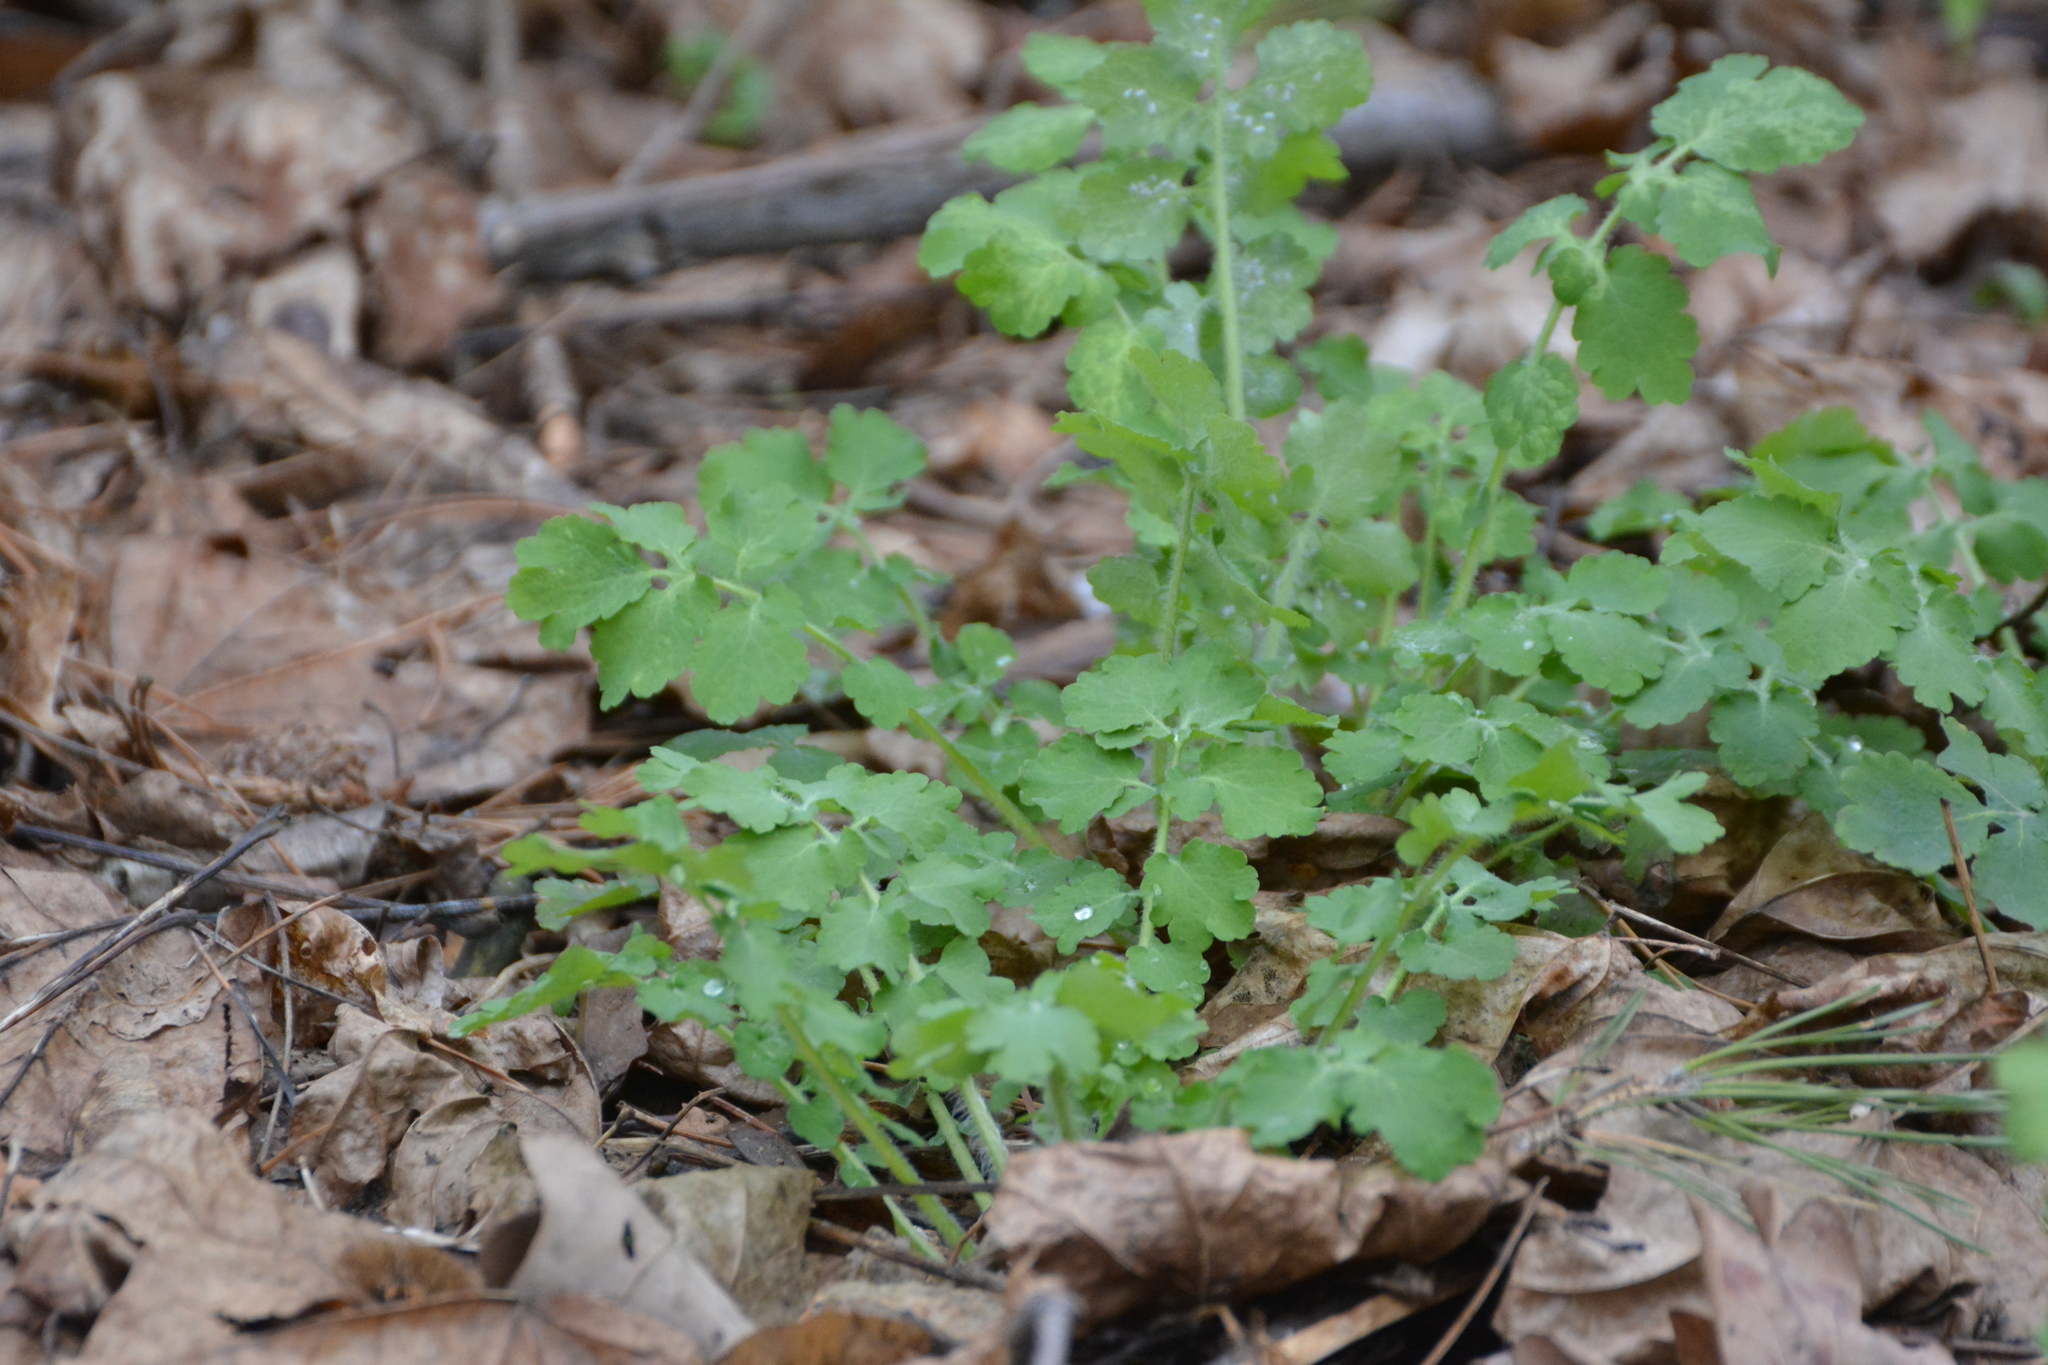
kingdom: Plantae
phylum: Tracheophyta
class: Magnoliopsida
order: Ranunculales
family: Papaveraceae
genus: Chelidonium
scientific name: Chelidonium majus
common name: Greater celandine
